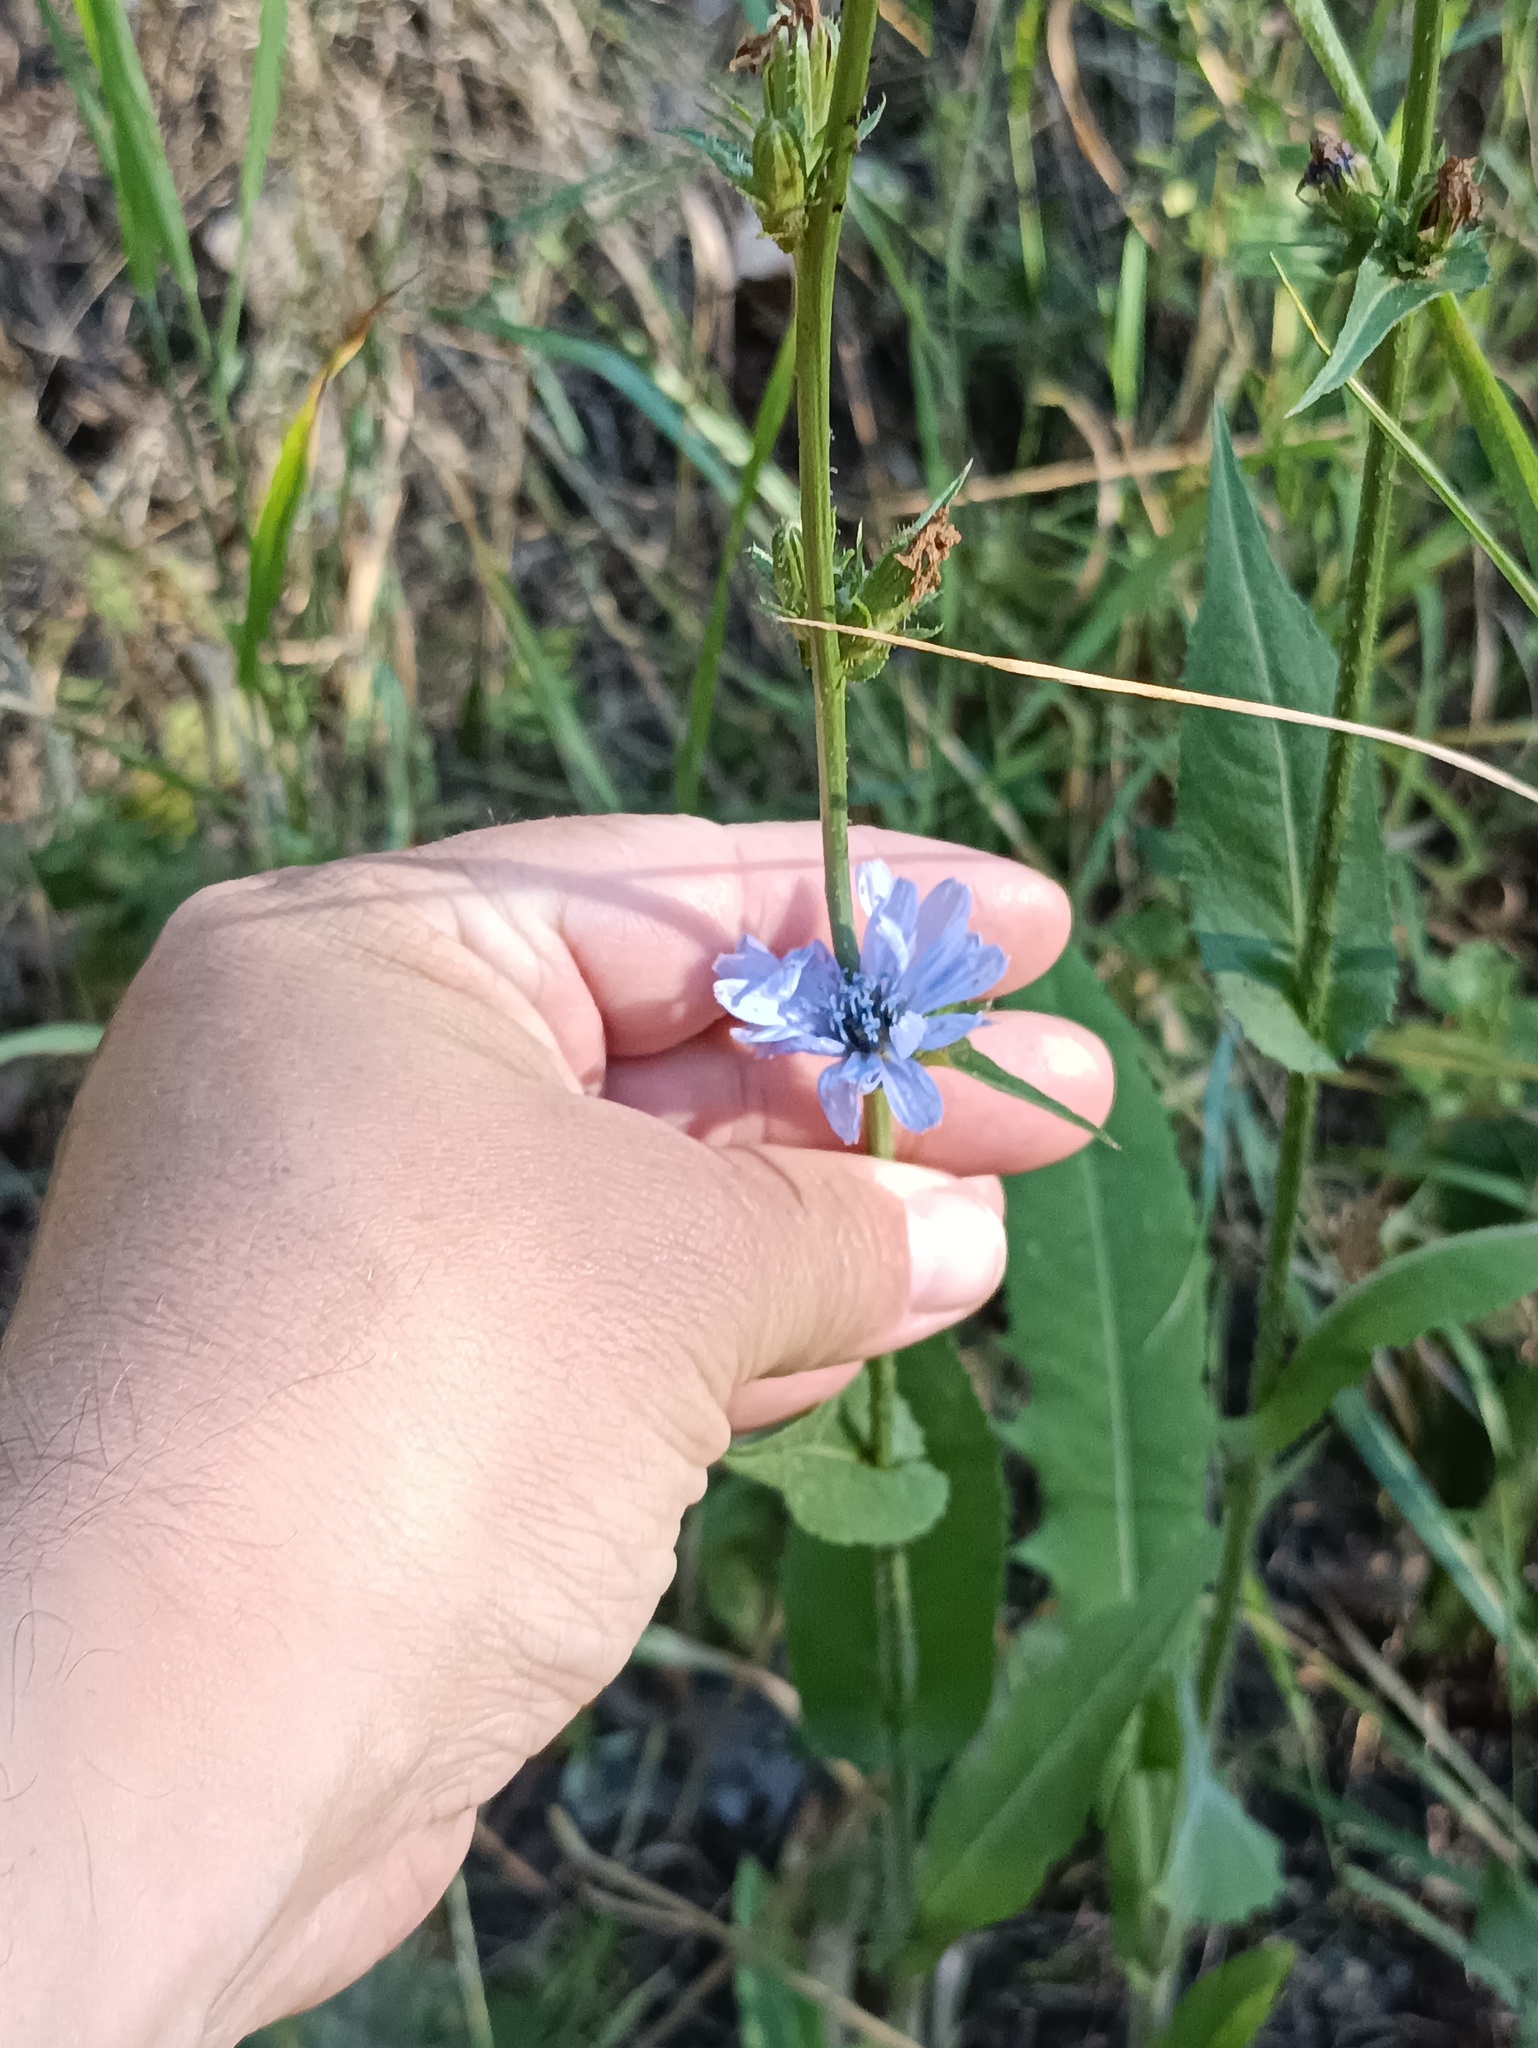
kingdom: Plantae
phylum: Tracheophyta
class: Magnoliopsida
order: Asterales
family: Asteraceae
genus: Cichorium
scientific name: Cichorium intybus
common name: Chicory
